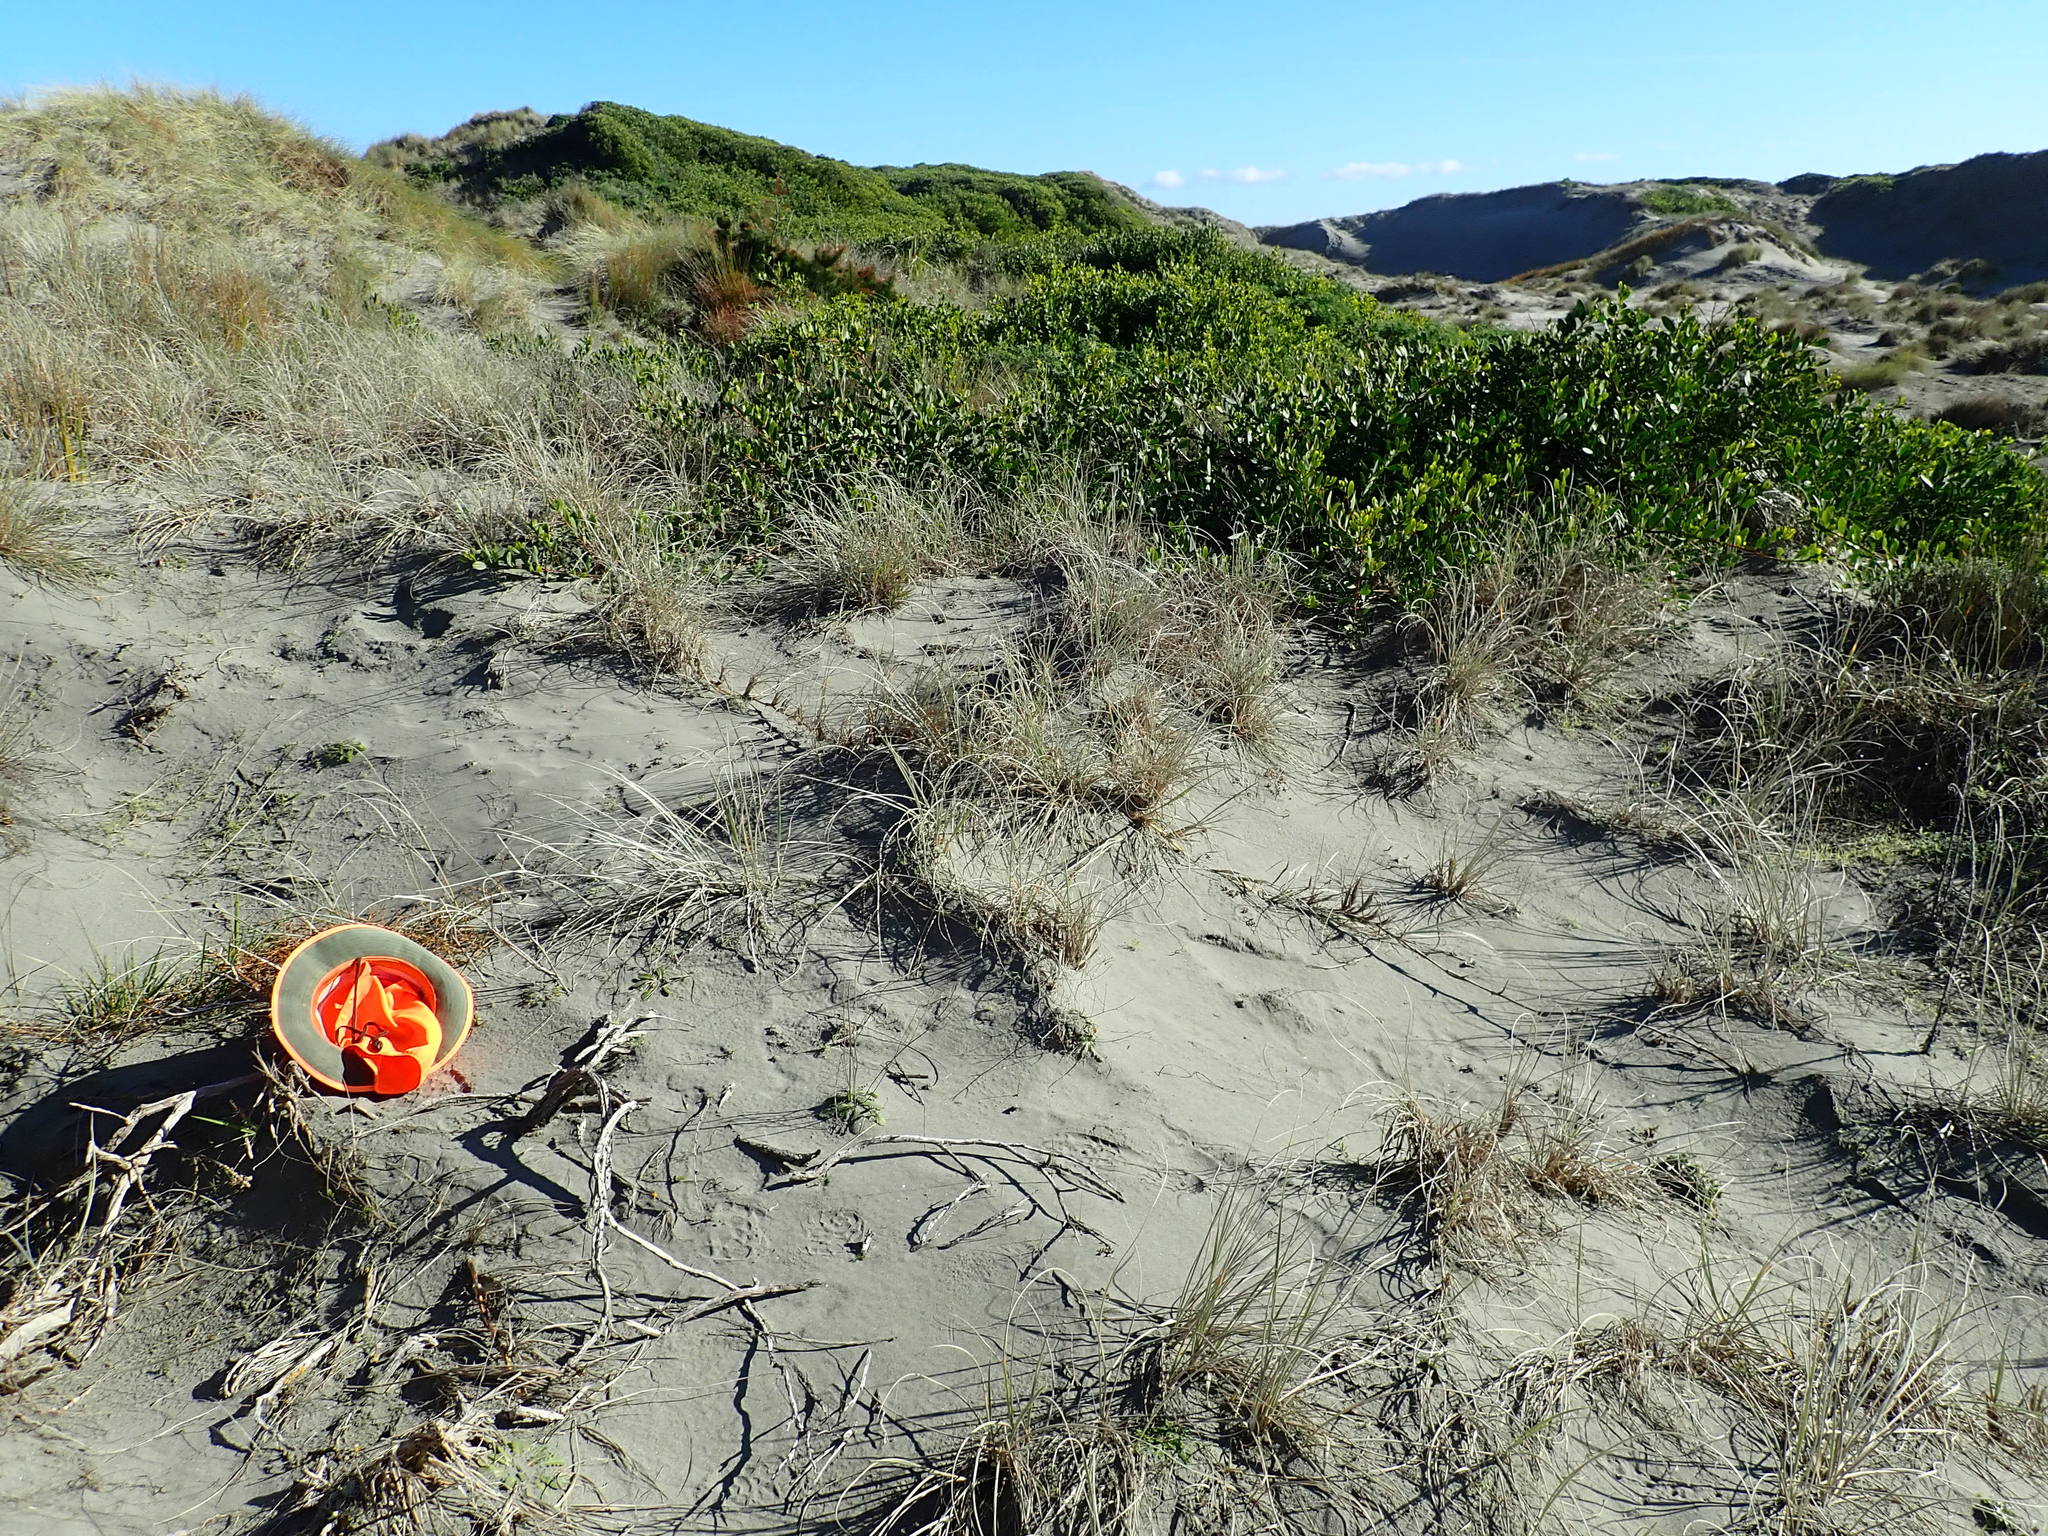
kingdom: Plantae
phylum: Tracheophyta
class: Magnoliopsida
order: Gentianales
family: Rubiaceae
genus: Coprosma
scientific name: Coprosma acerosa
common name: Sand coprosma
